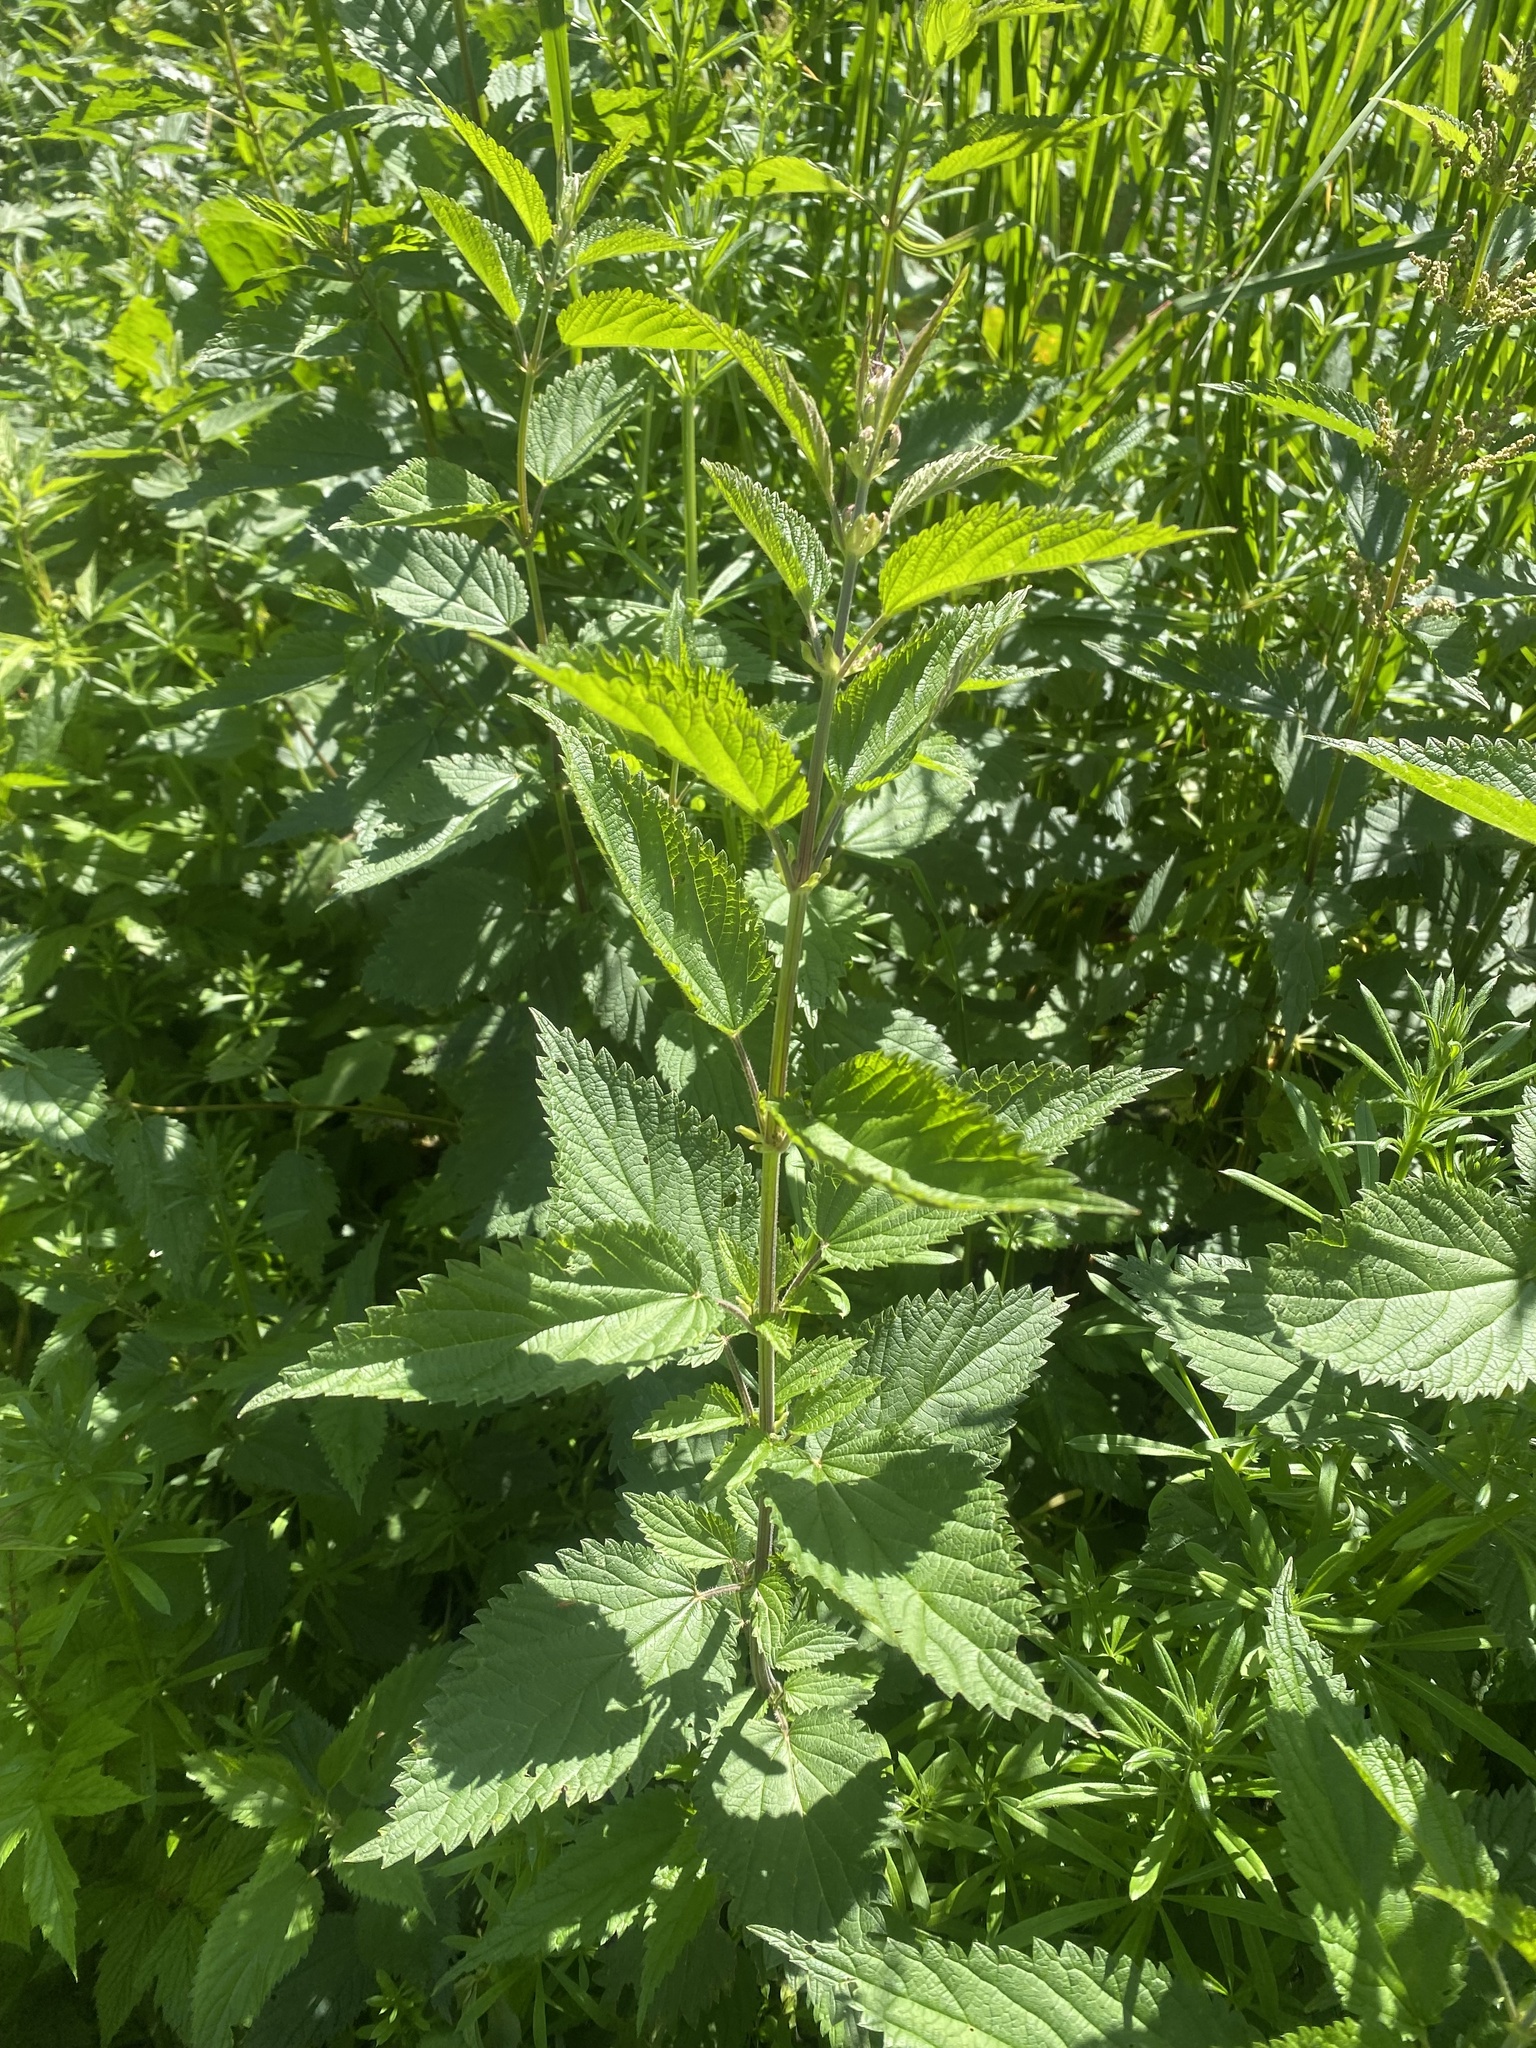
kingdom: Plantae
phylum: Tracheophyta
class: Magnoliopsida
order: Rosales
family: Urticaceae
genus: Urtica
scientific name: Urtica dioica
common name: Common nettle
